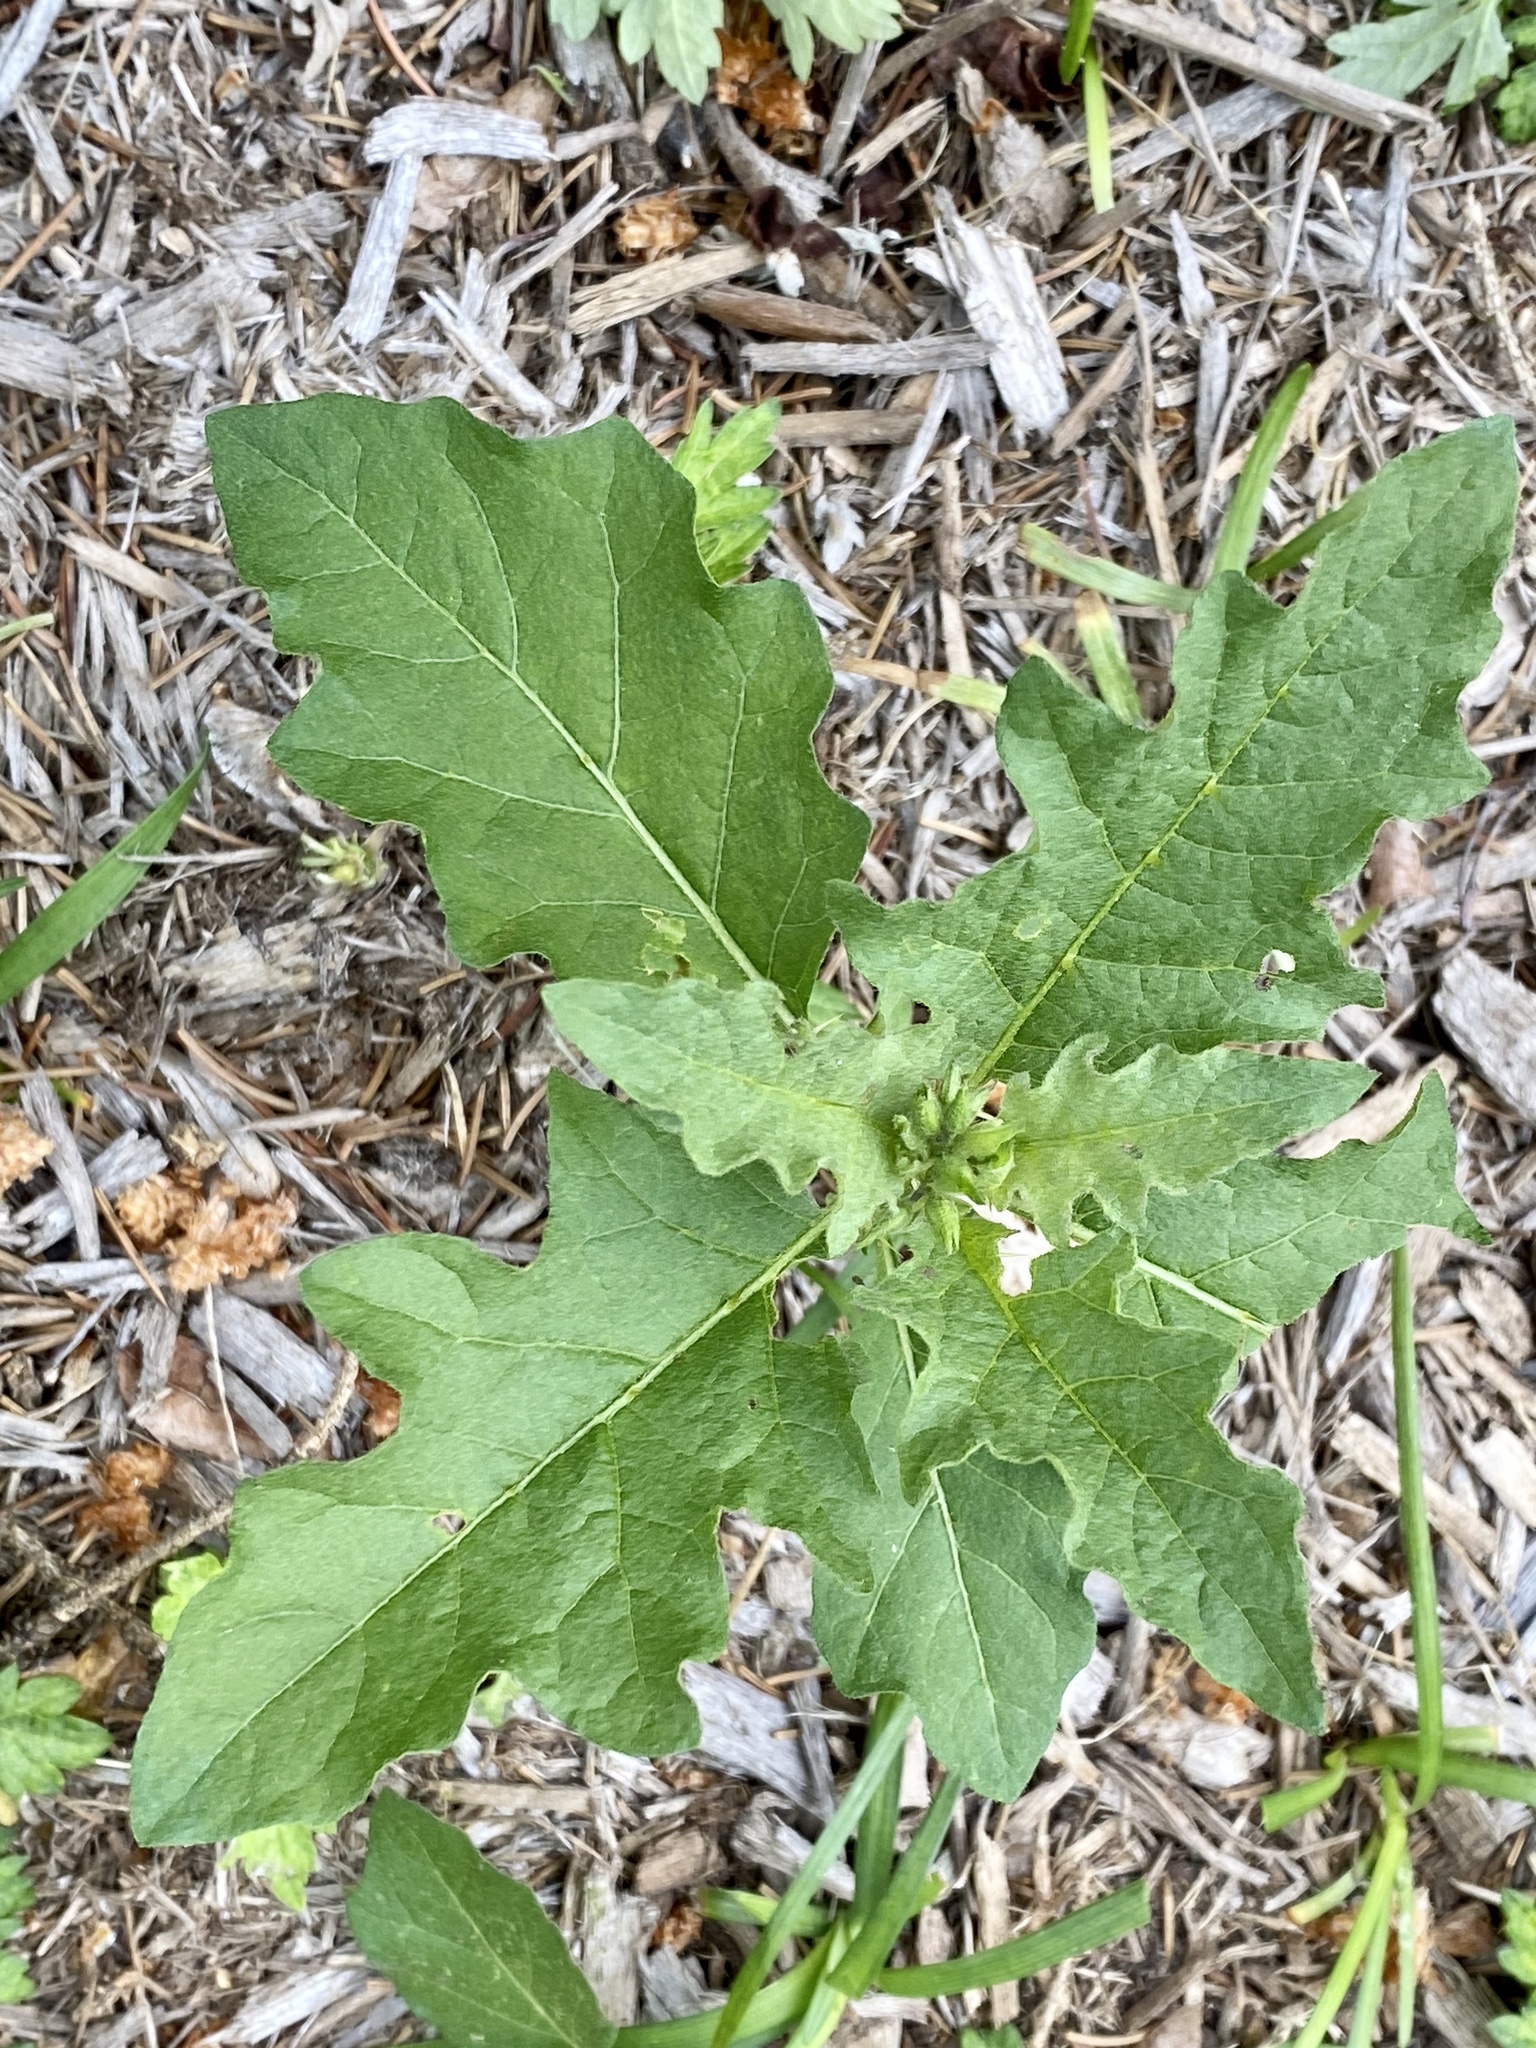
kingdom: Plantae
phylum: Tracheophyta
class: Magnoliopsida
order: Solanales
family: Solanaceae
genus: Solanum
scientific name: Solanum carolinense
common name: Horse-nettle
